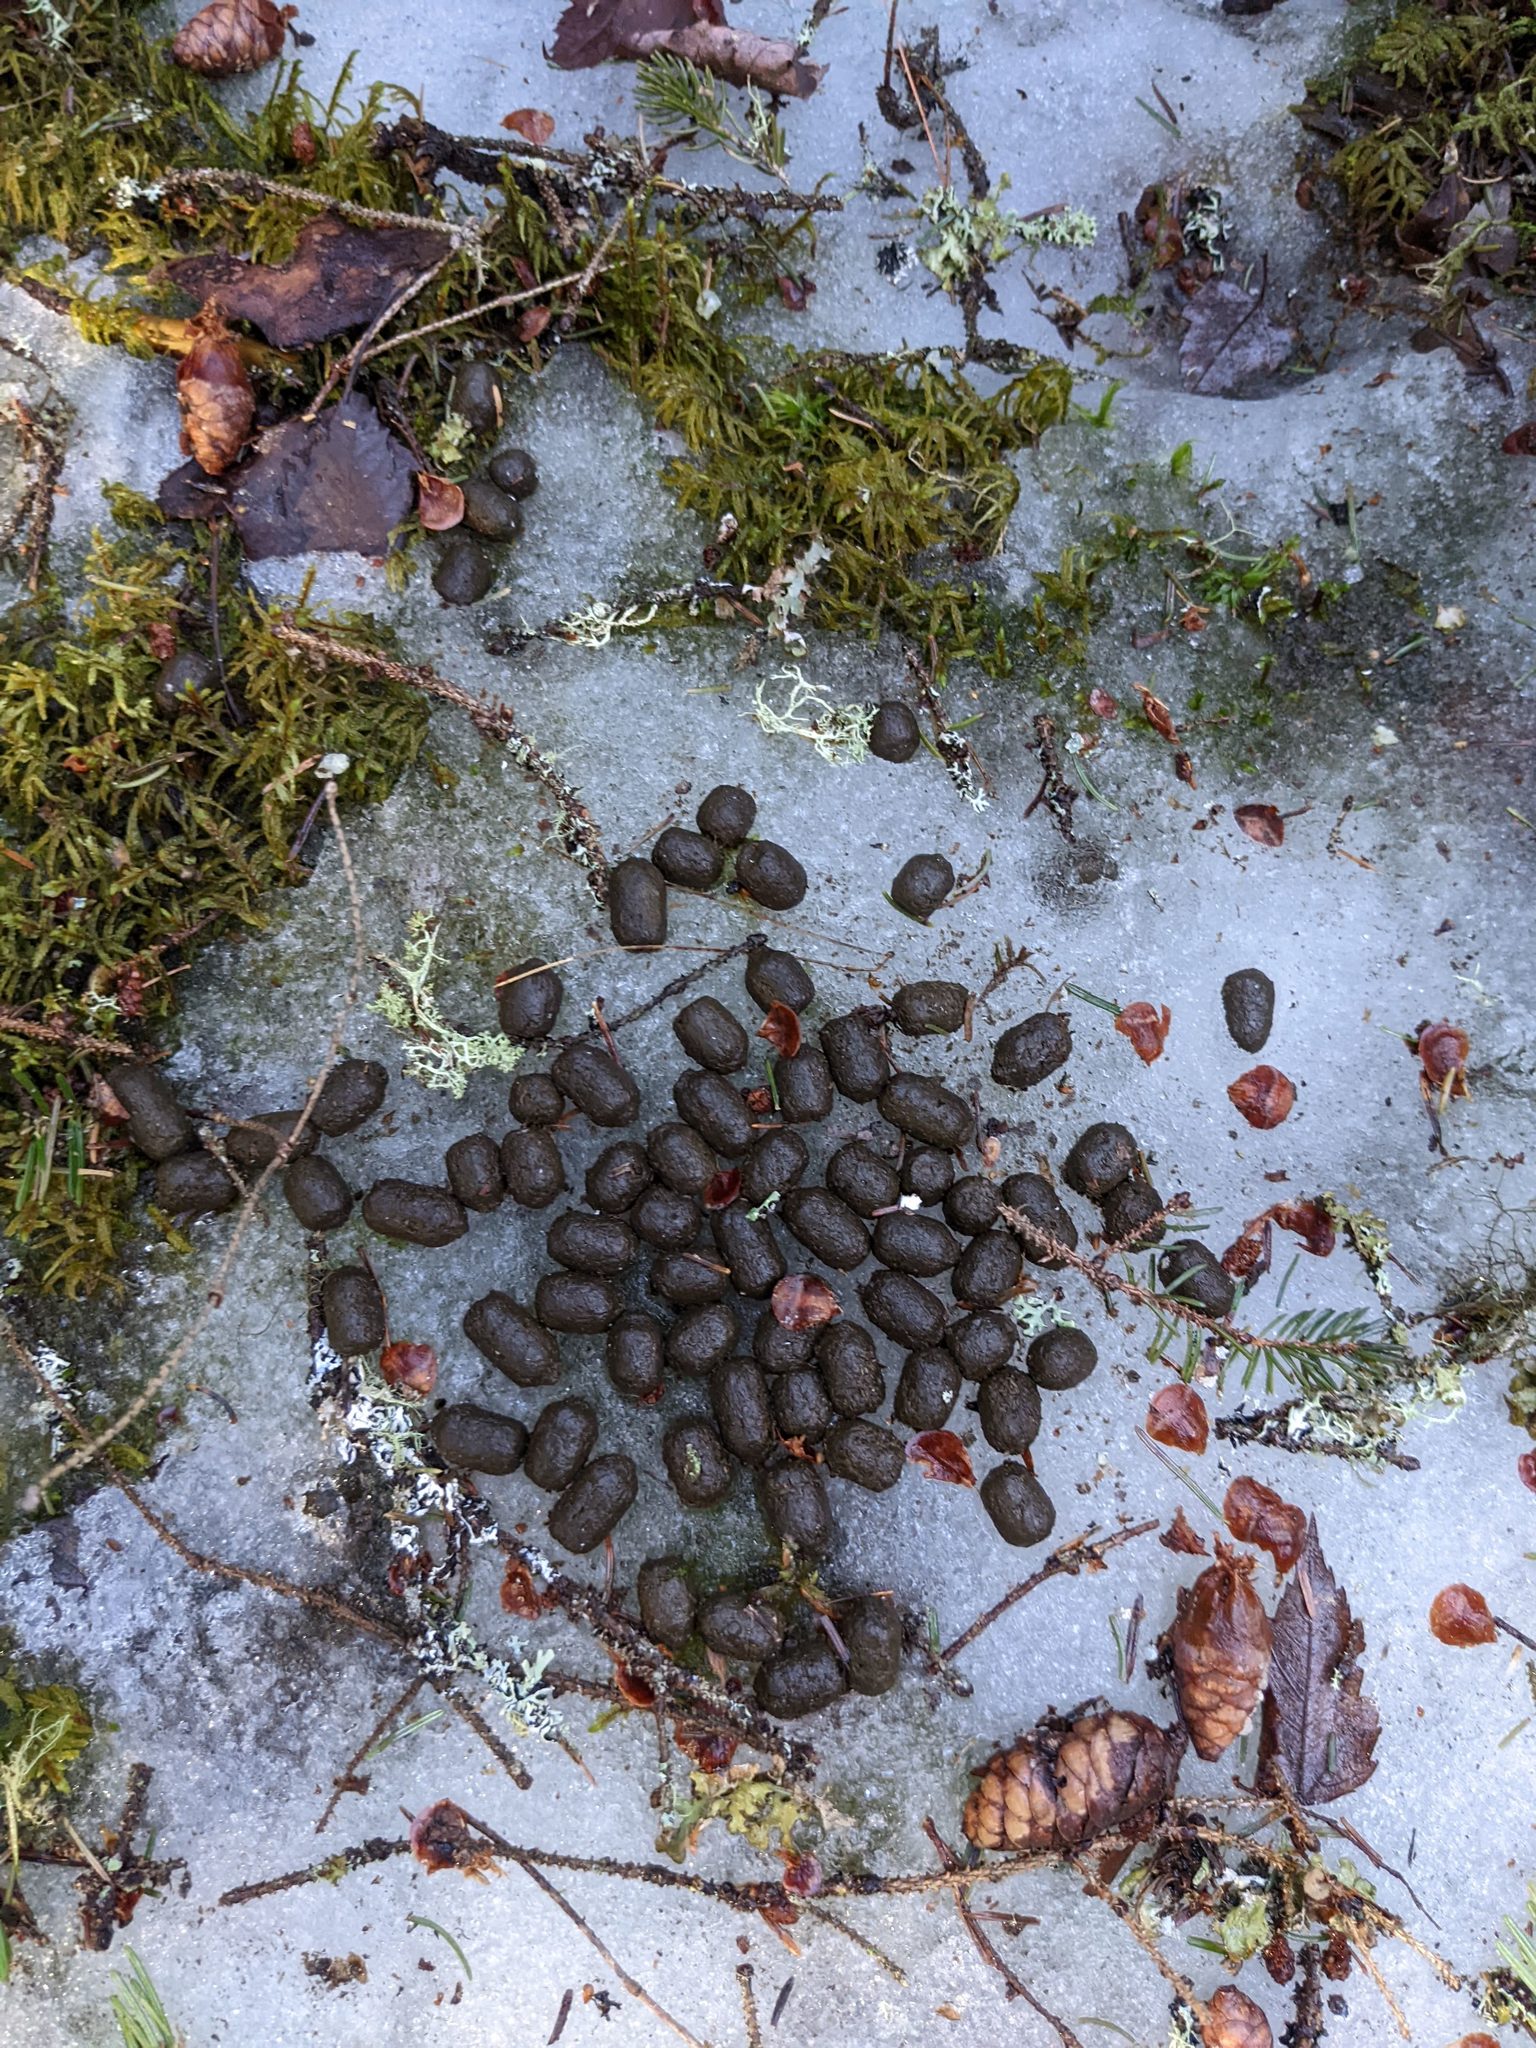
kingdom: Animalia
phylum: Chordata
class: Mammalia
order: Artiodactyla
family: Cervidae
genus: Odocoileus
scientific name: Odocoileus virginianus
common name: White-tailed deer
